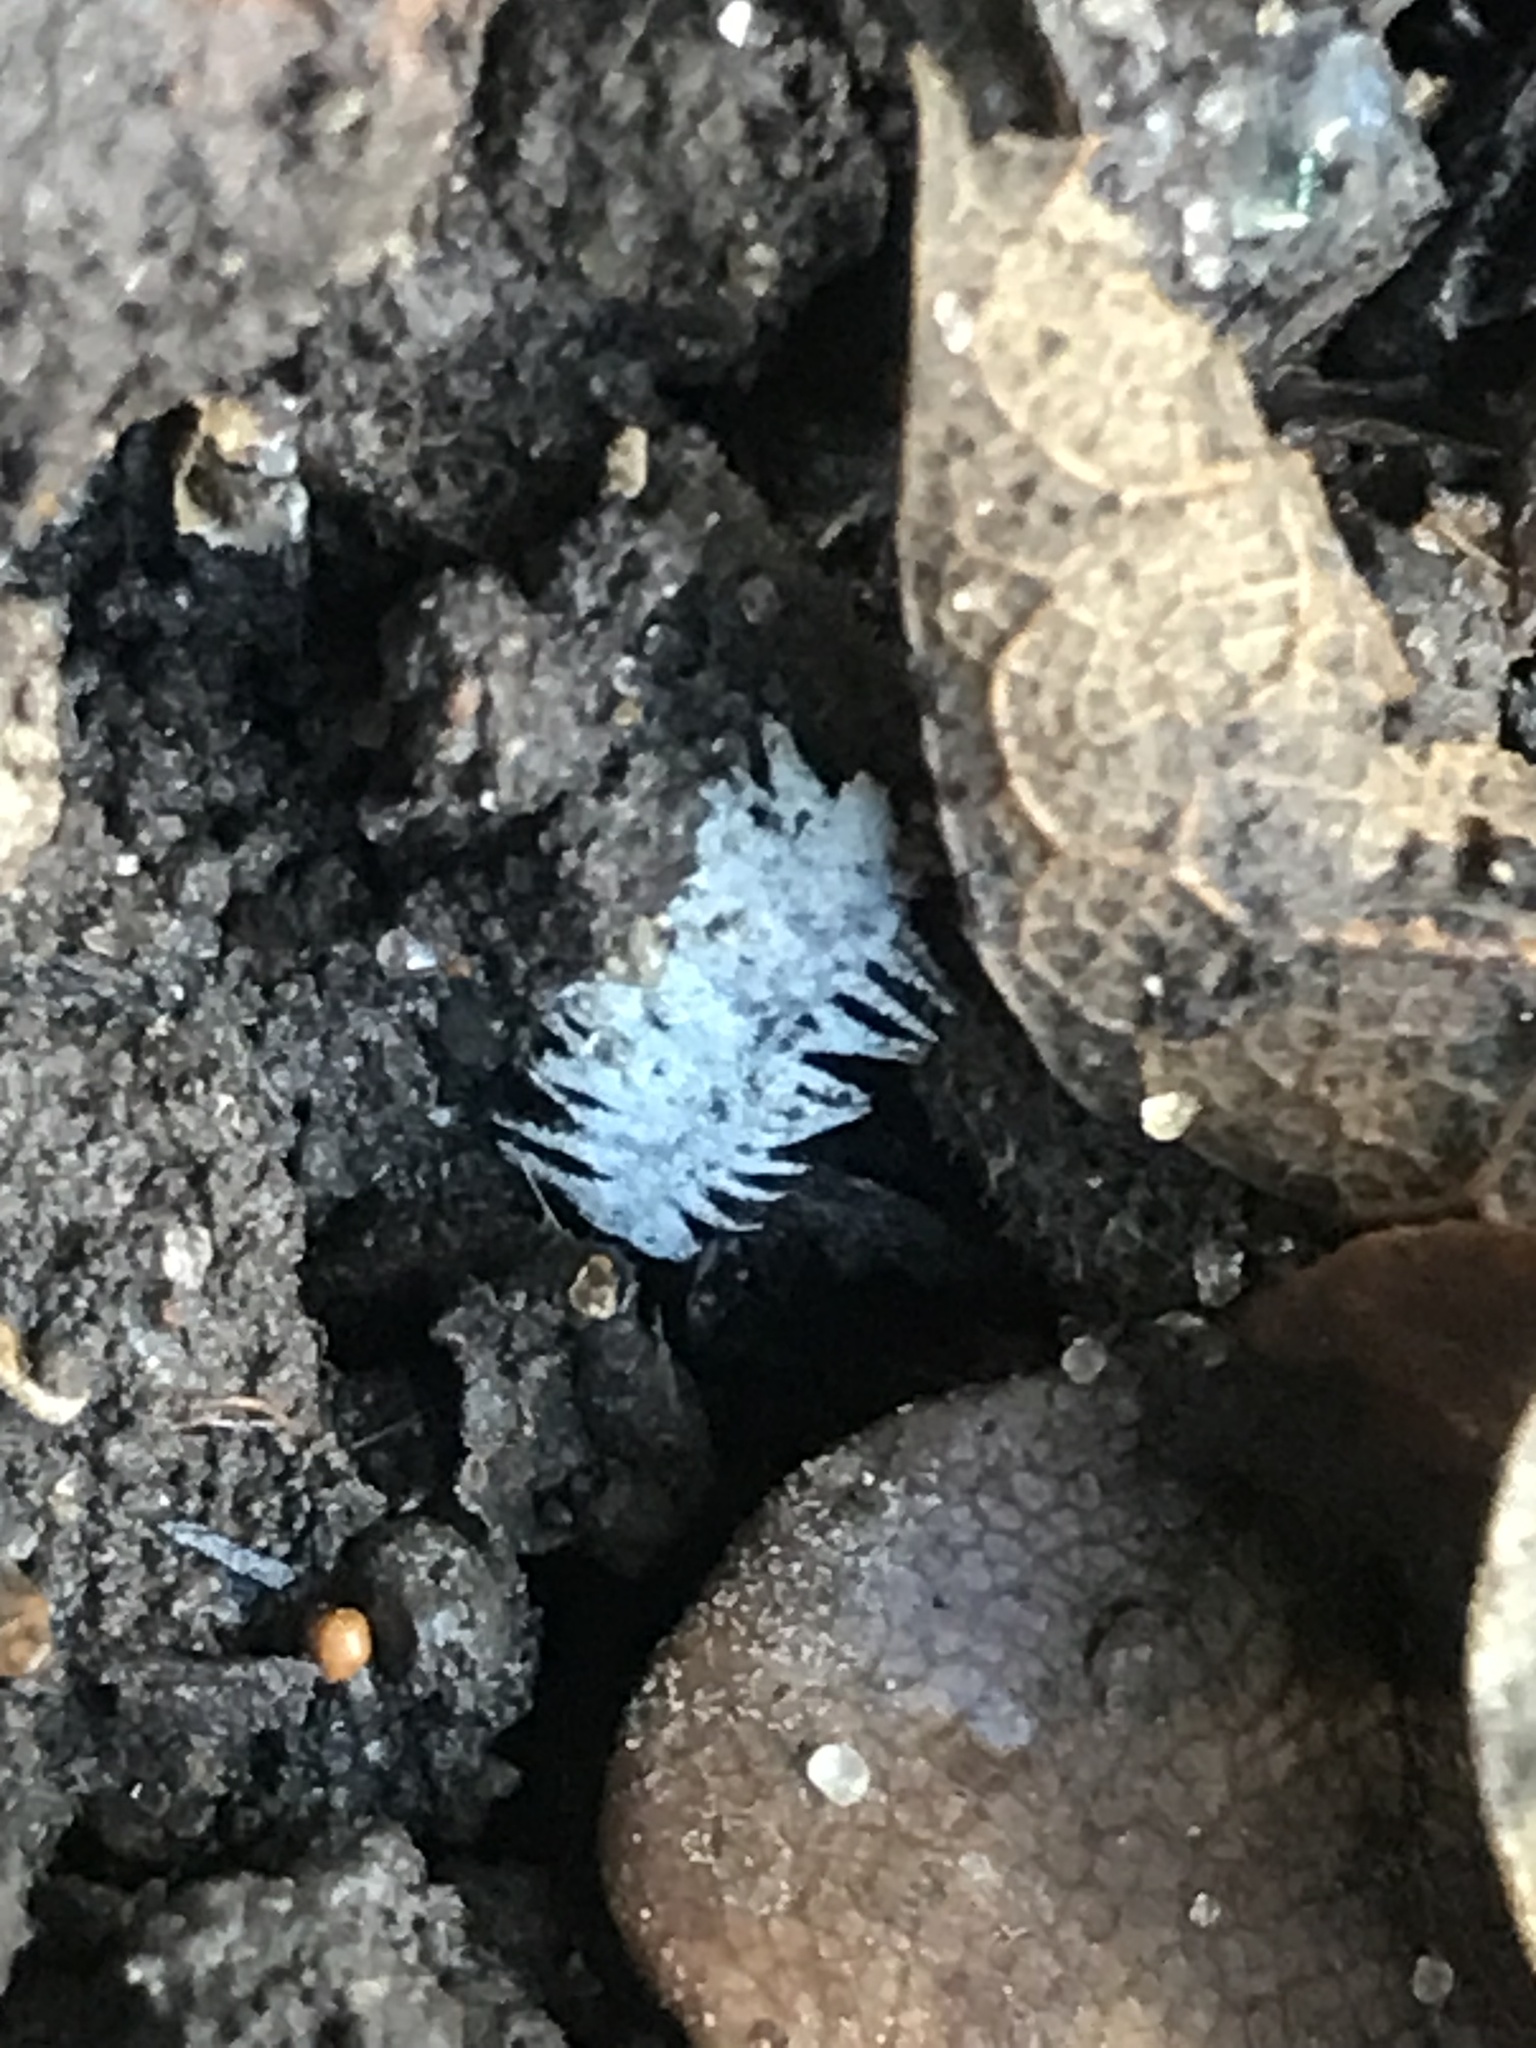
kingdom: Protozoa
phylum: Mycetozoa
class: Protosteliomycetes
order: Ceratiomyxales
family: Ceratiomyxaceae
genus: Ceratiomyxa
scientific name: Ceratiomyxa fruticulosa
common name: Honeycomb coral slime mold
